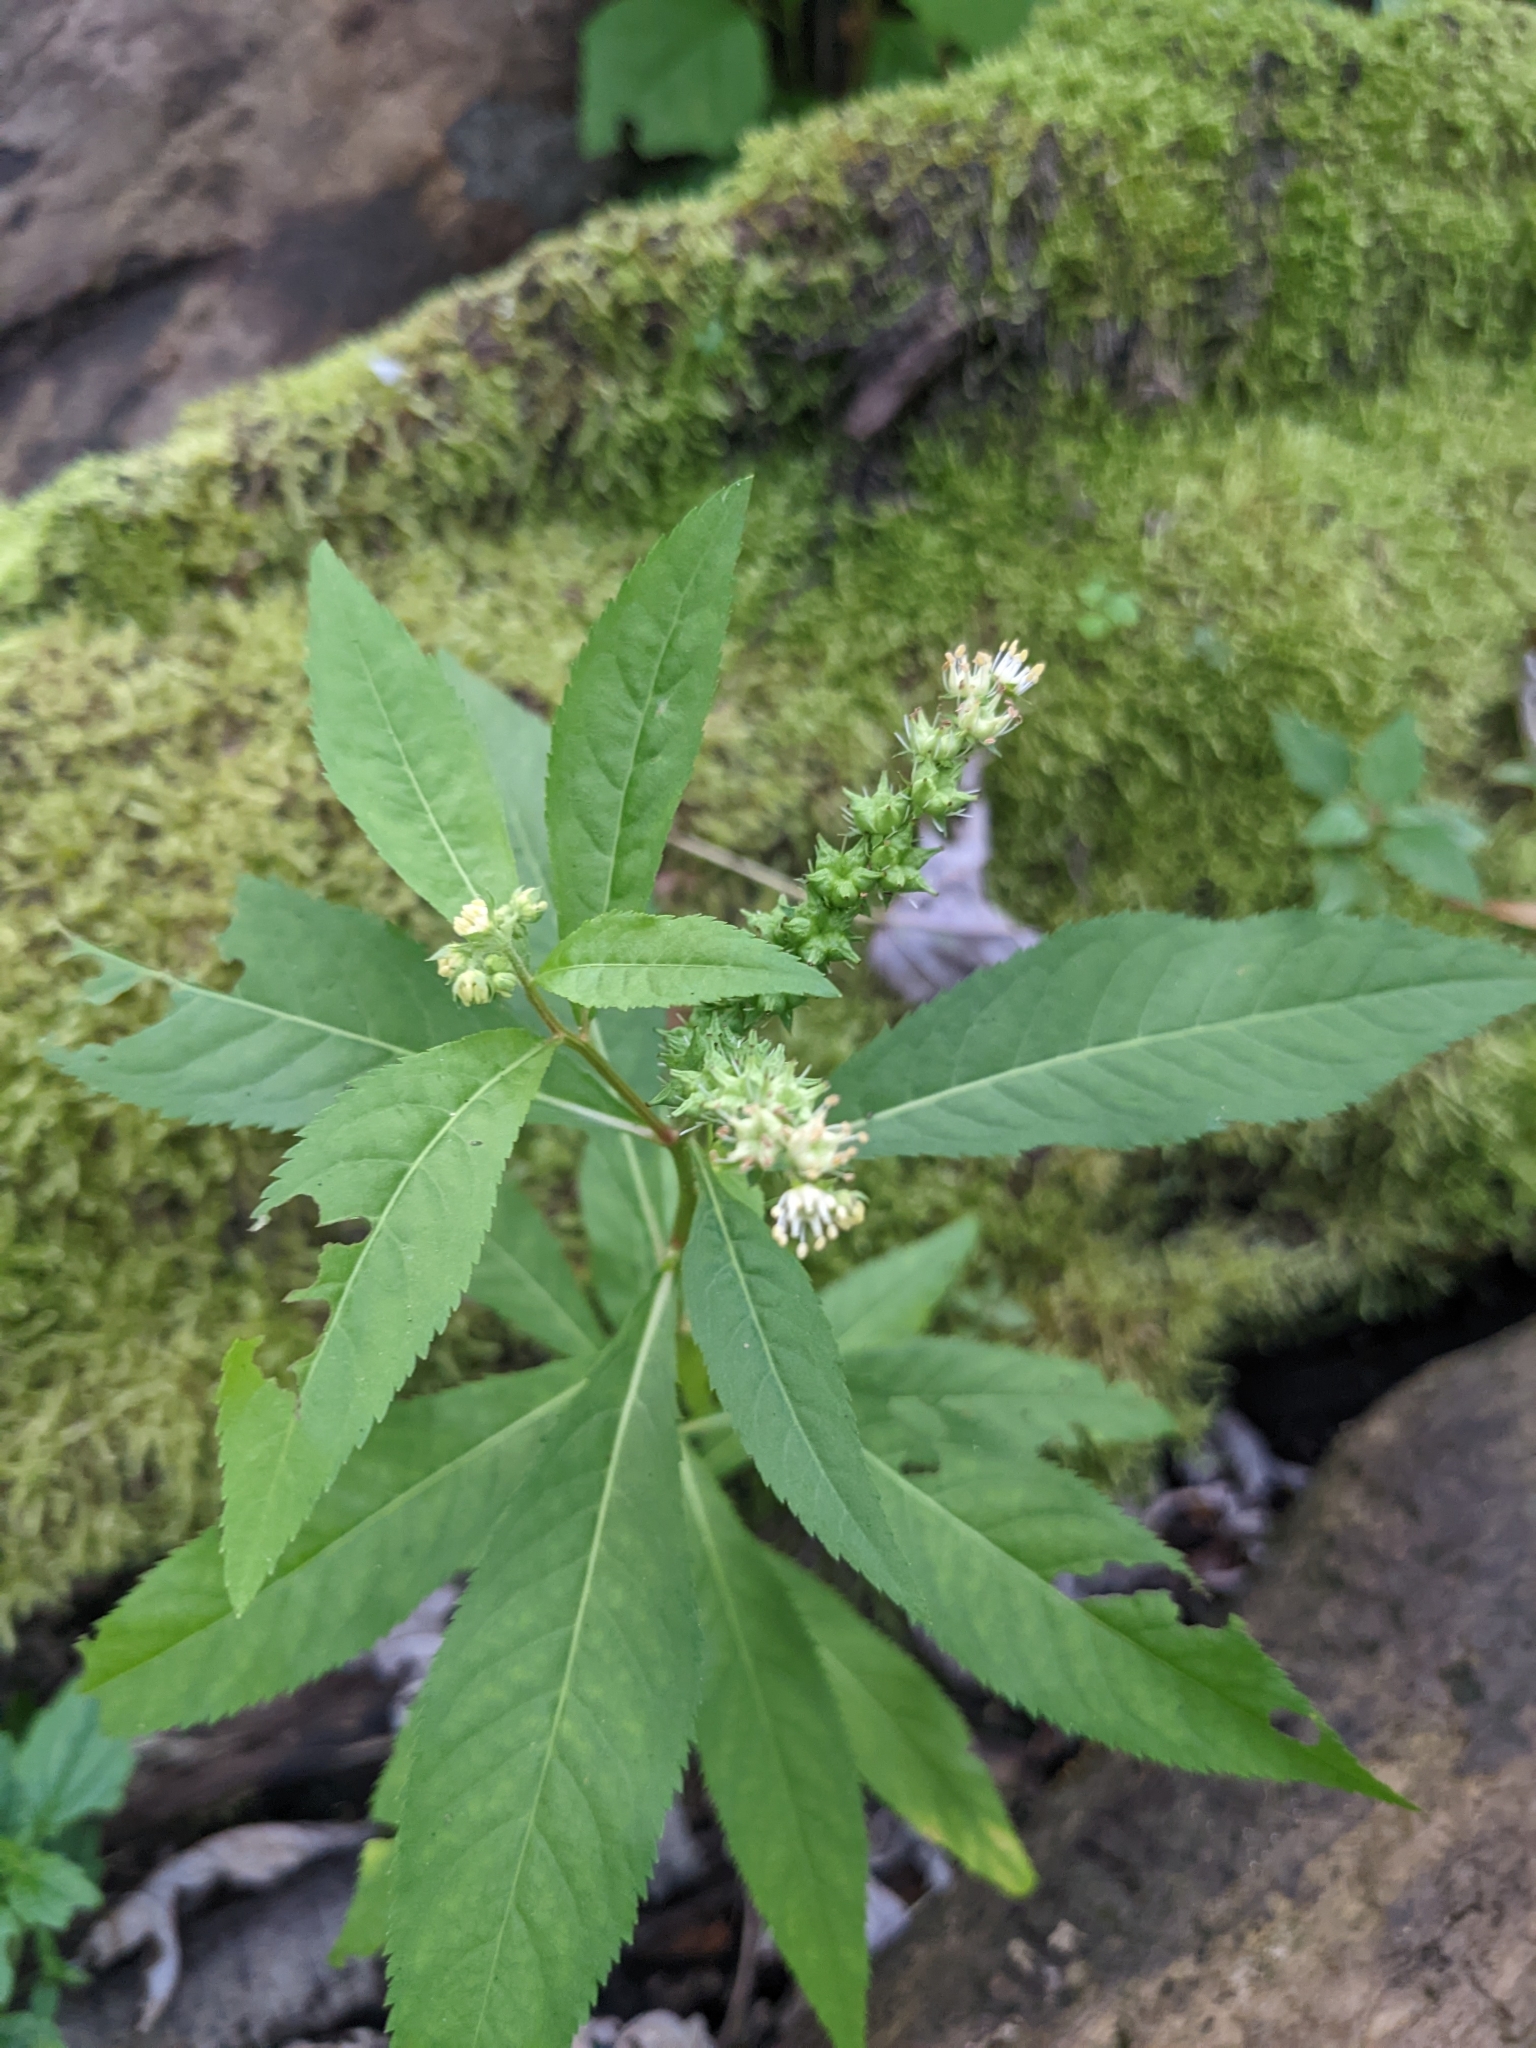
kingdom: Plantae
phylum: Tracheophyta
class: Magnoliopsida
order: Saxifragales
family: Penthoraceae
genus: Penthorum
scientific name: Penthorum sedoides
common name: Ditch stonecrop
